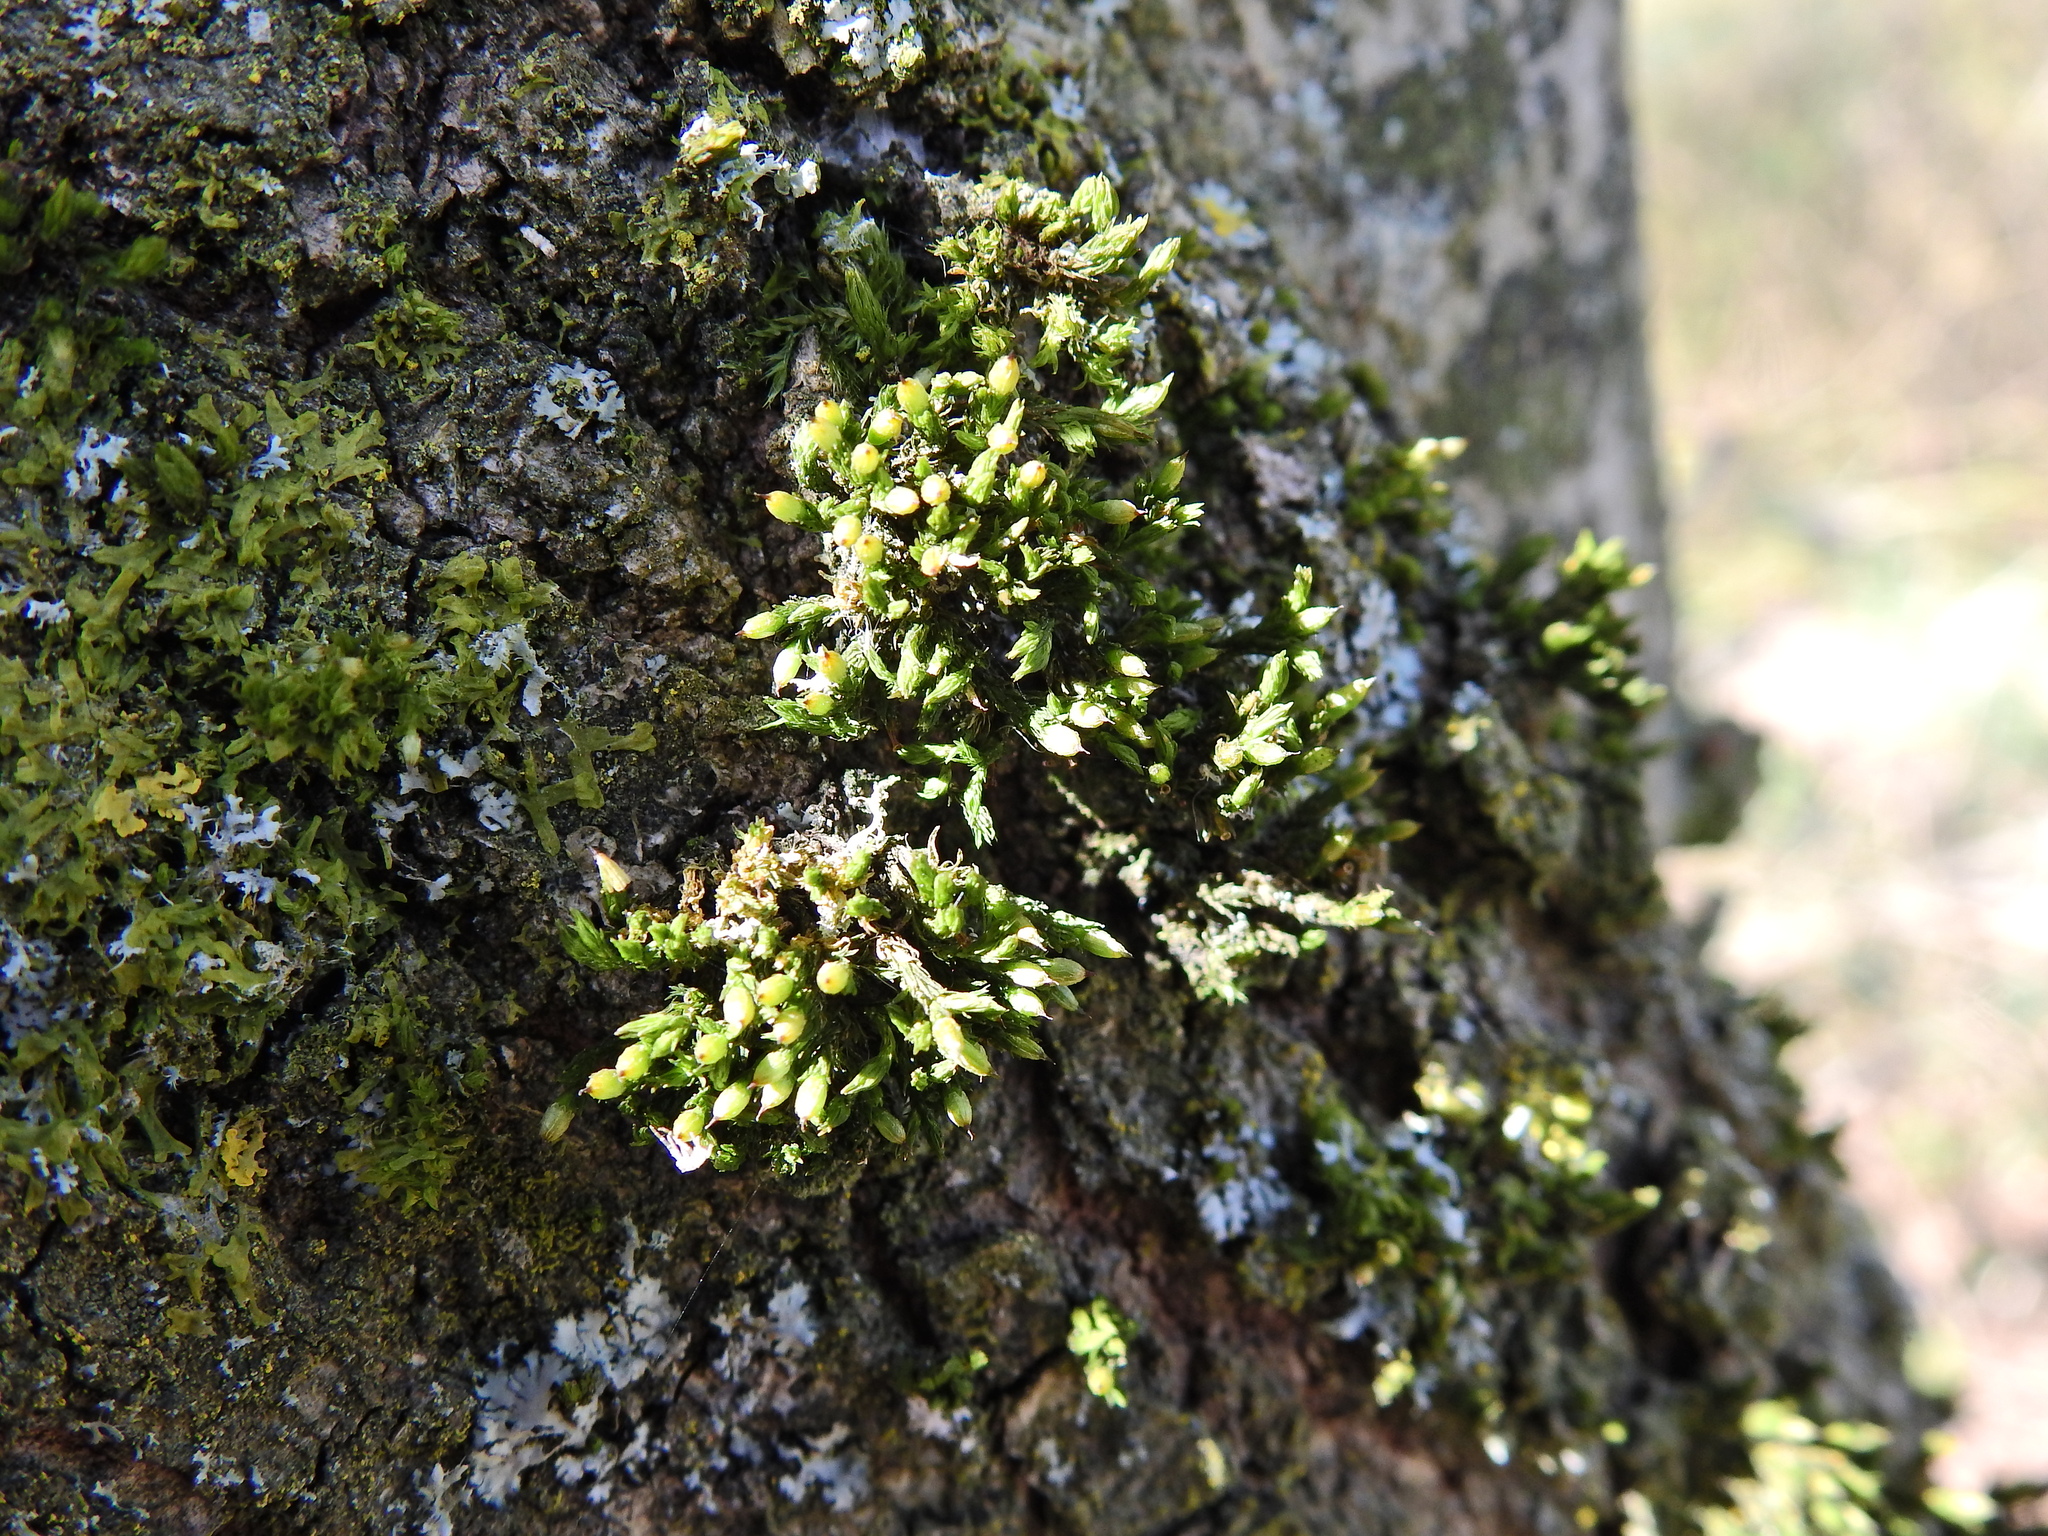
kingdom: Plantae
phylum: Bryophyta
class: Bryopsida
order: Orthotrichales
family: Orthotrichaceae
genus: Orthotrichum
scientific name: Orthotrichum stramineum
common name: Straw bristle-moss
